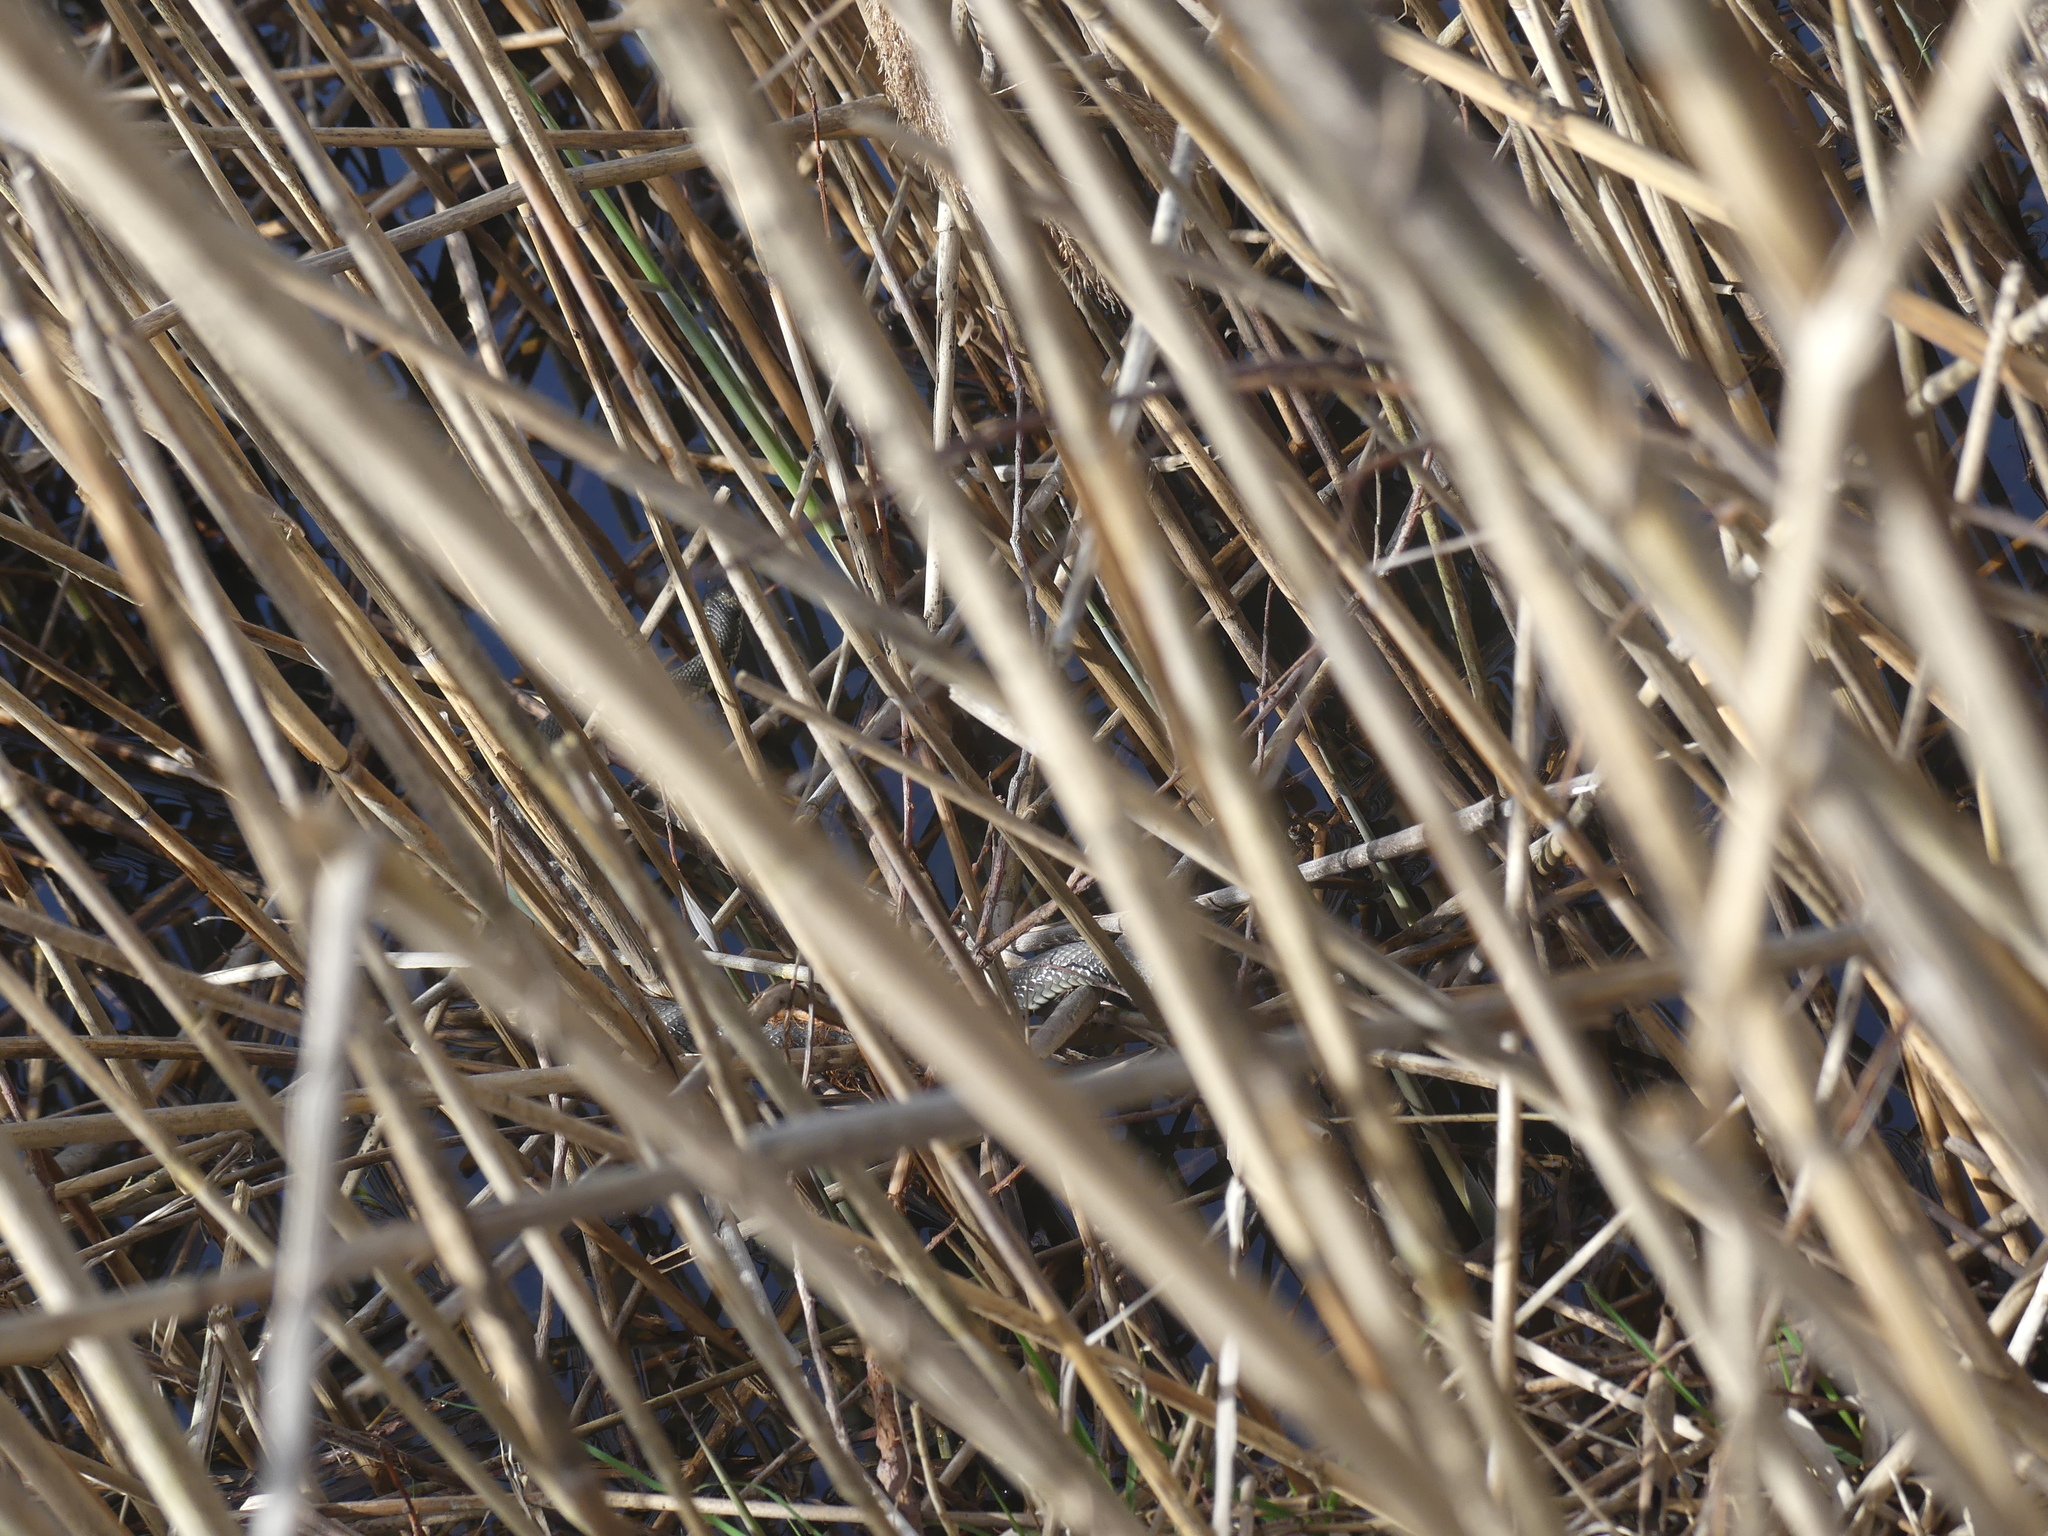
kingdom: Animalia
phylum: Chordata
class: Squamata
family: Colubridae
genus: Natrix
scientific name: Natrix natrix
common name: Grass snake
